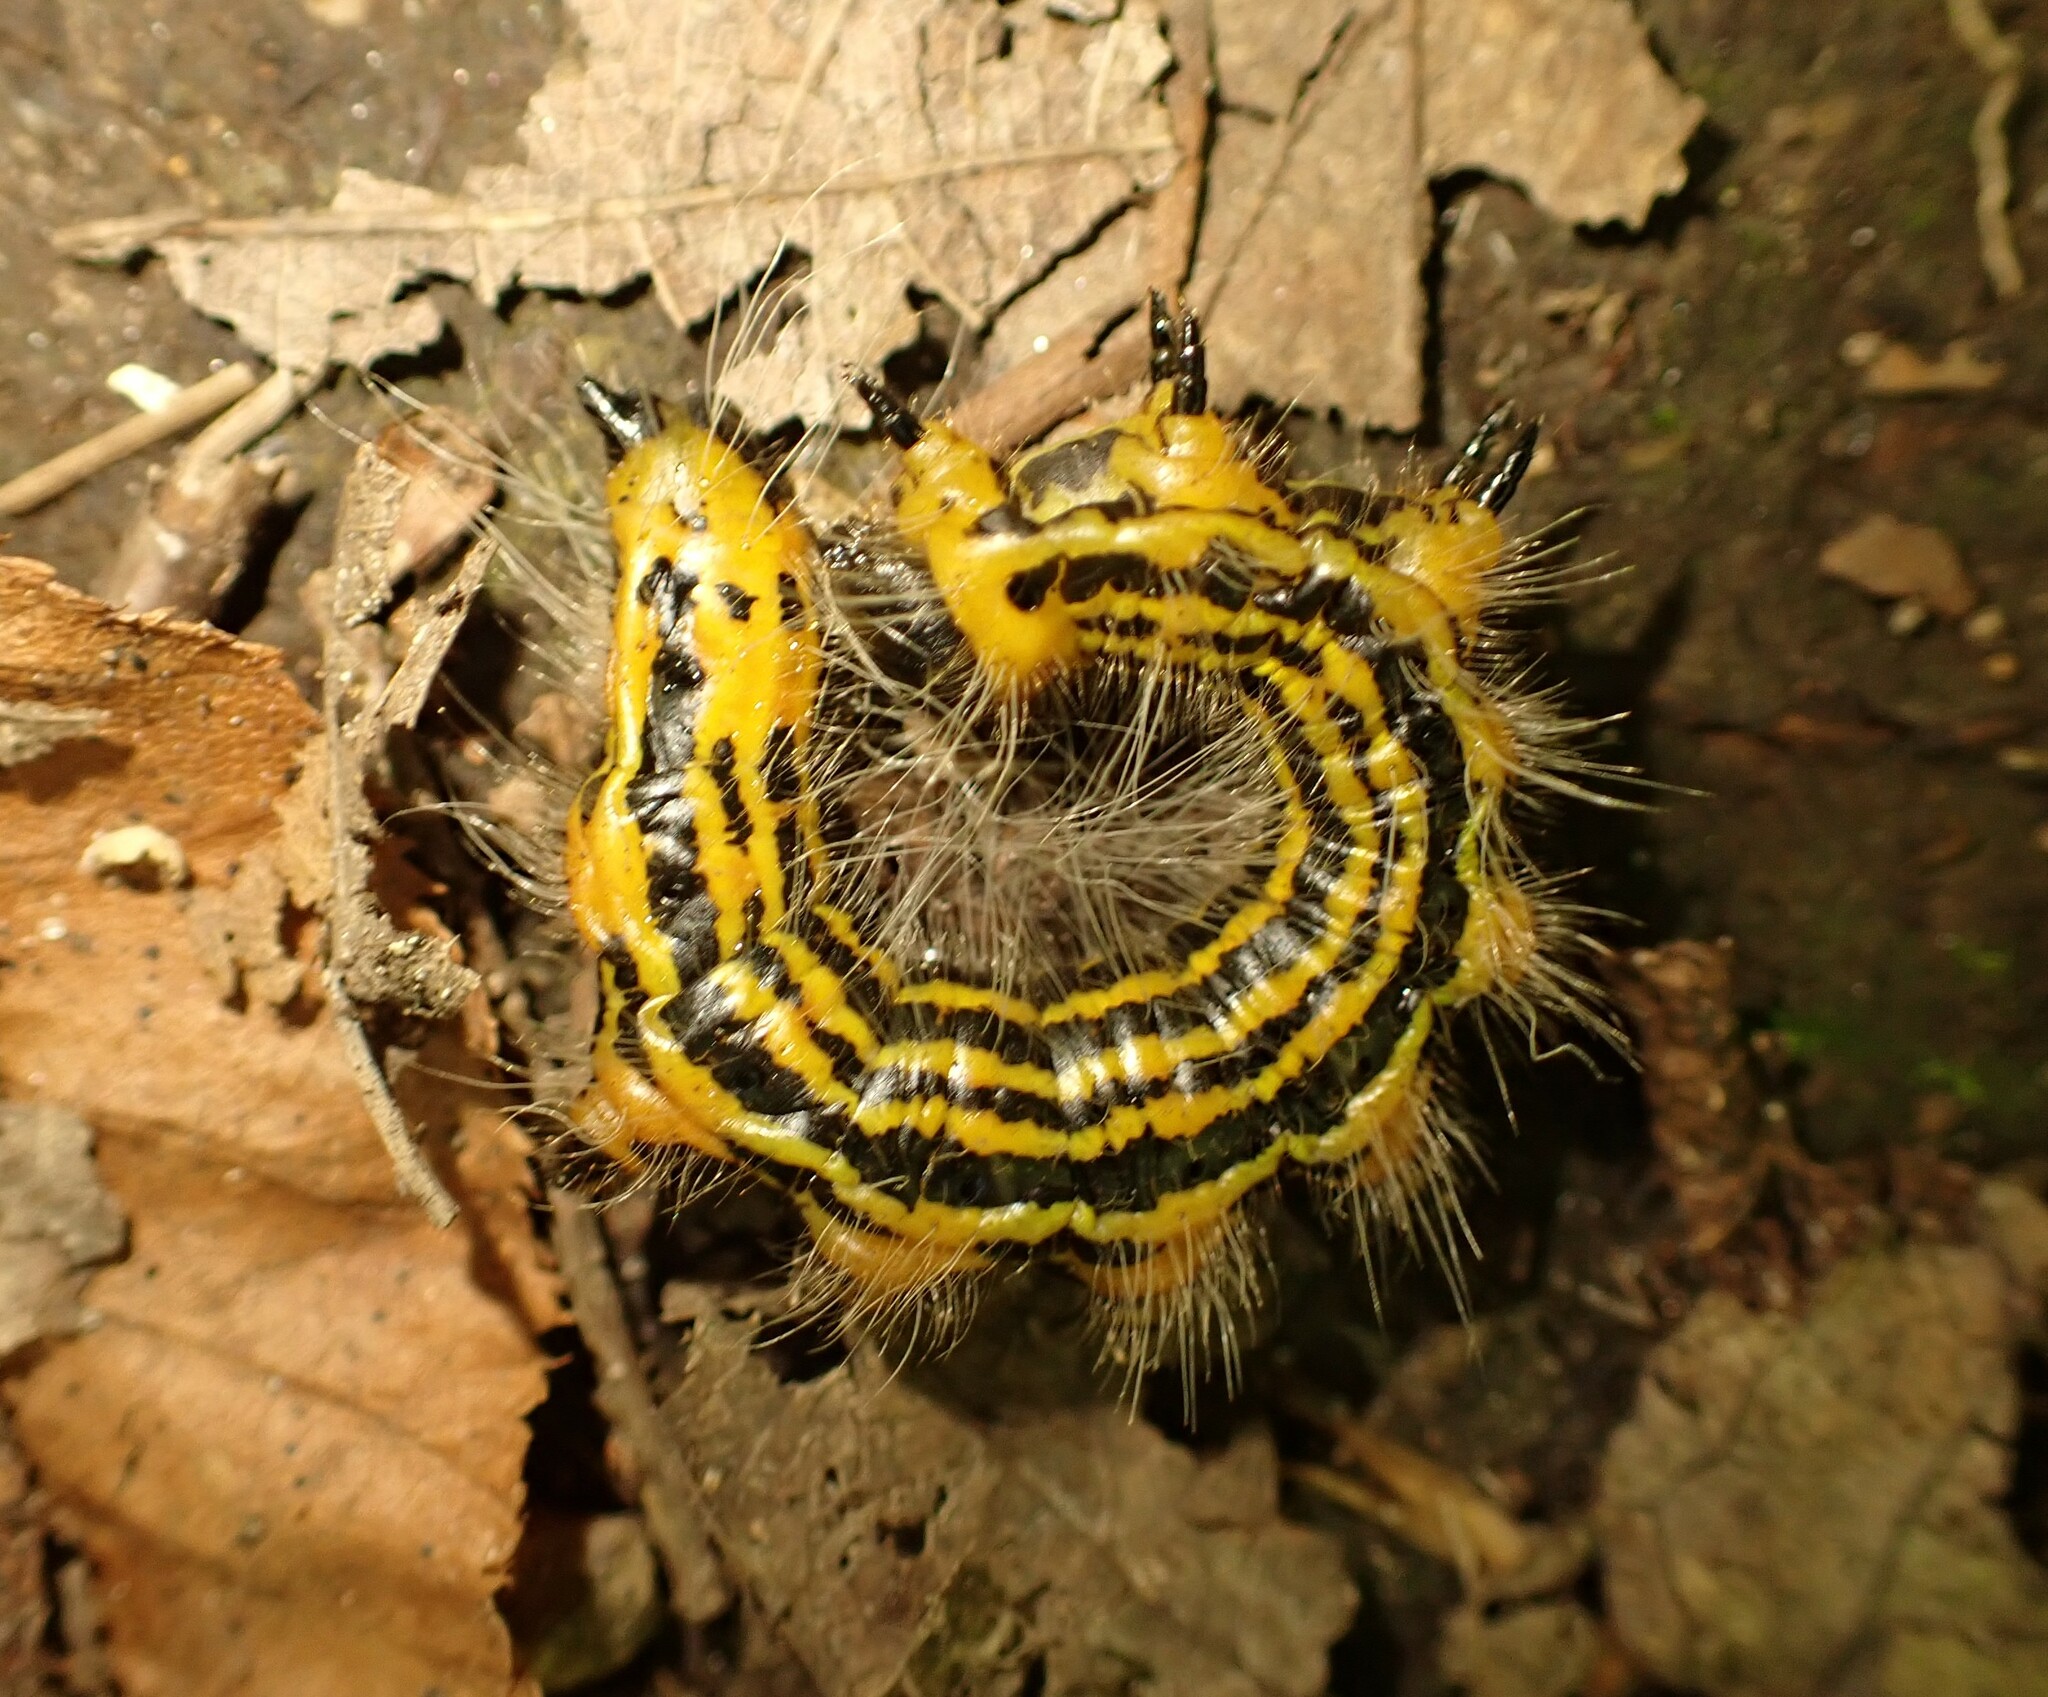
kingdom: Animalia
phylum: Arthropoda
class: Insecta
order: Lepidoptera
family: Notodontidae
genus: Datana
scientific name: Datana drexelii
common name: Drexel's datana
